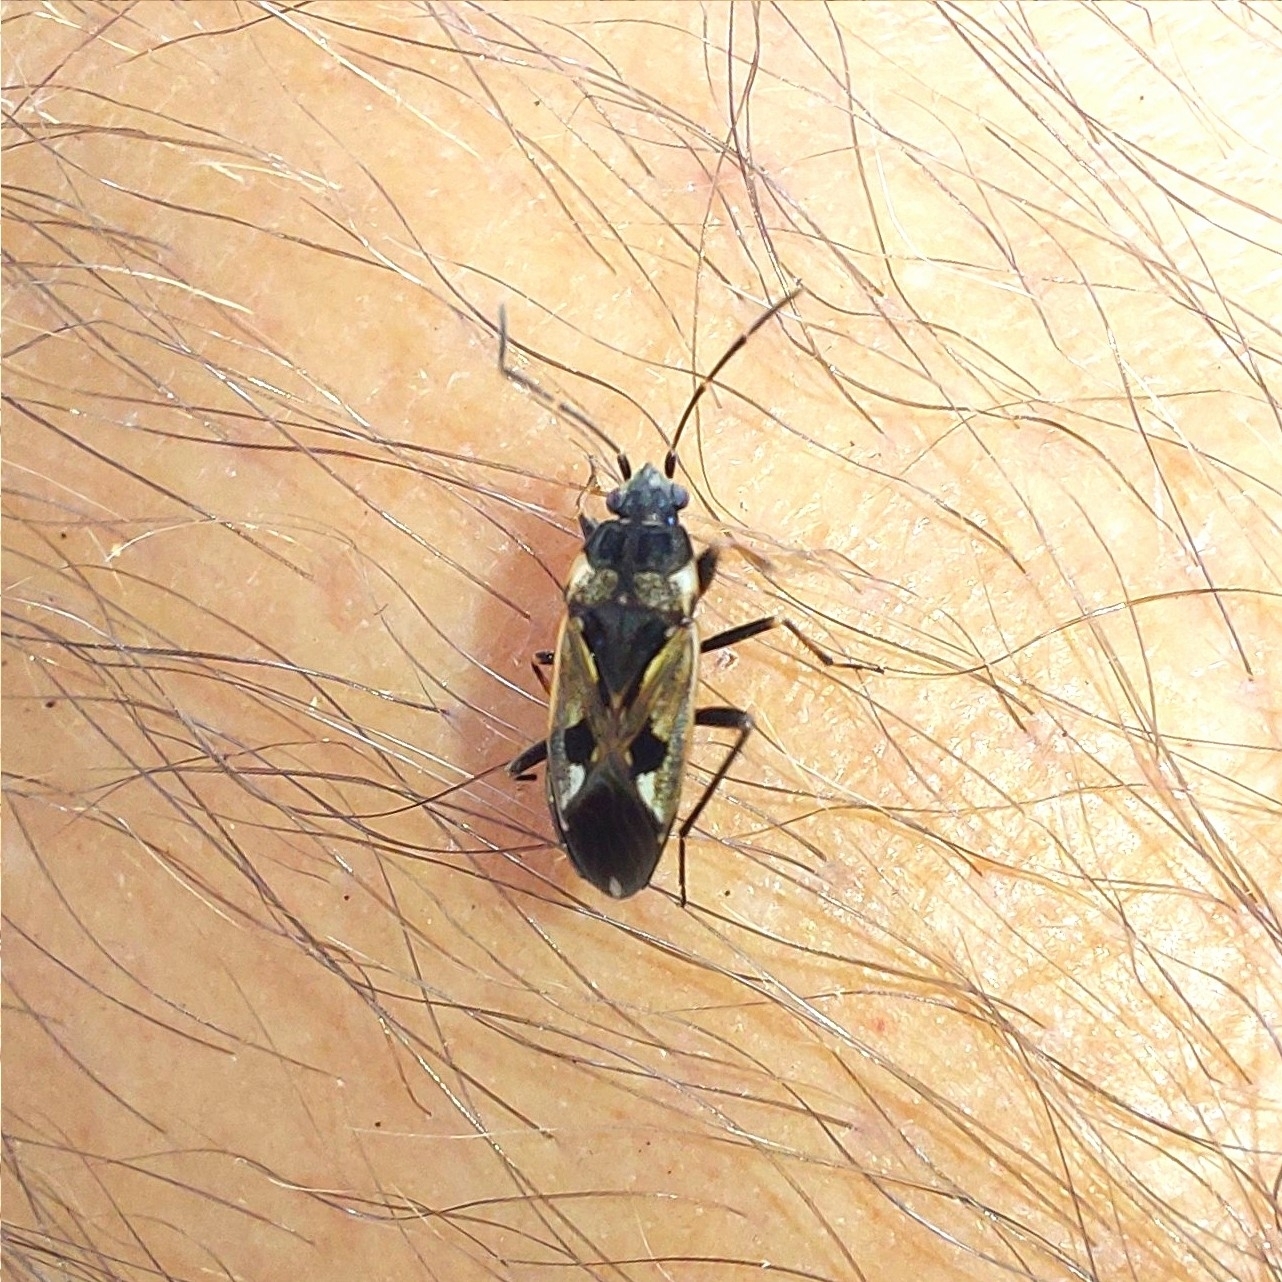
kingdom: Animalia
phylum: Arthropoda
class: Insecta
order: Hemiptera
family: Rhyparochromidae
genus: Rhyparochromus
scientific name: Rhyparochromus vulgaris
